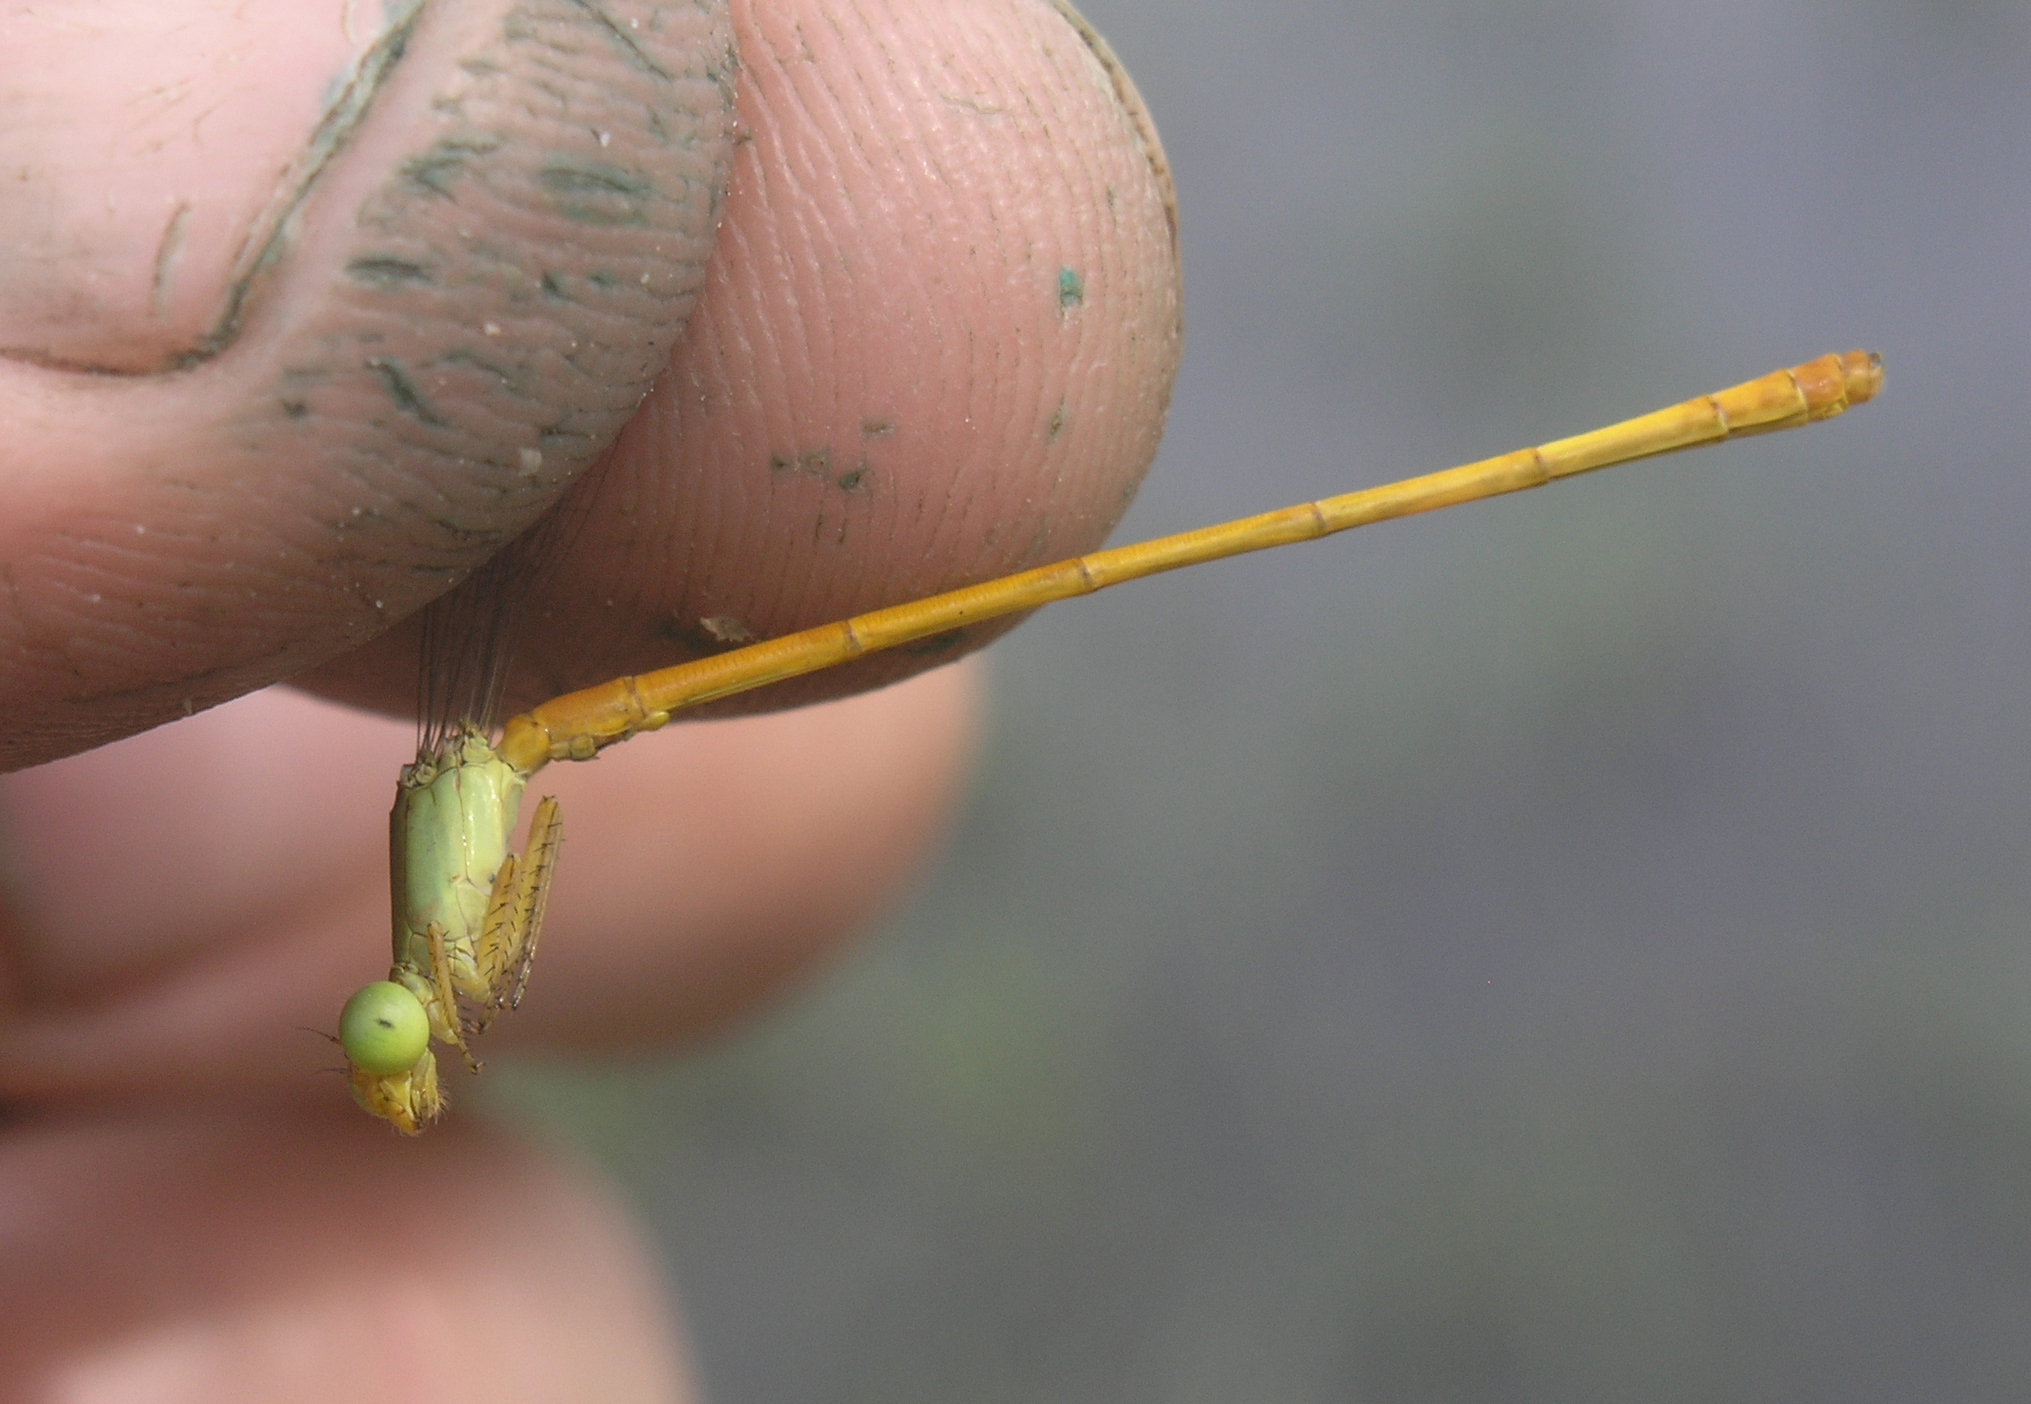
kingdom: Animalia
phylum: Arthropoda
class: Insecta
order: Odonata
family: Coenagrionidae
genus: Ceriagrion
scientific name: Ceriagrion calamineum
